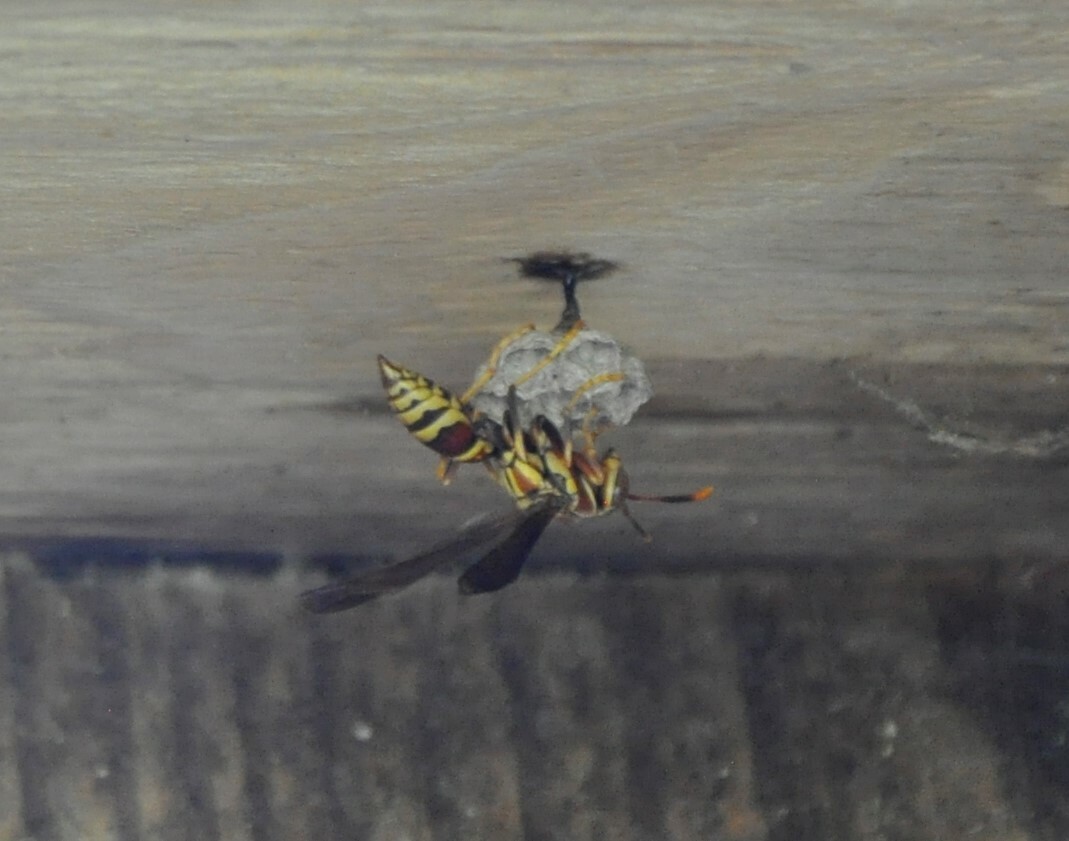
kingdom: Animalia
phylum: Arthropoda
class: Insecta
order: Hymenoptera
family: Eumenidae
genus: Polistes
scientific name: Polistes exclamans
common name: Paper wasp
